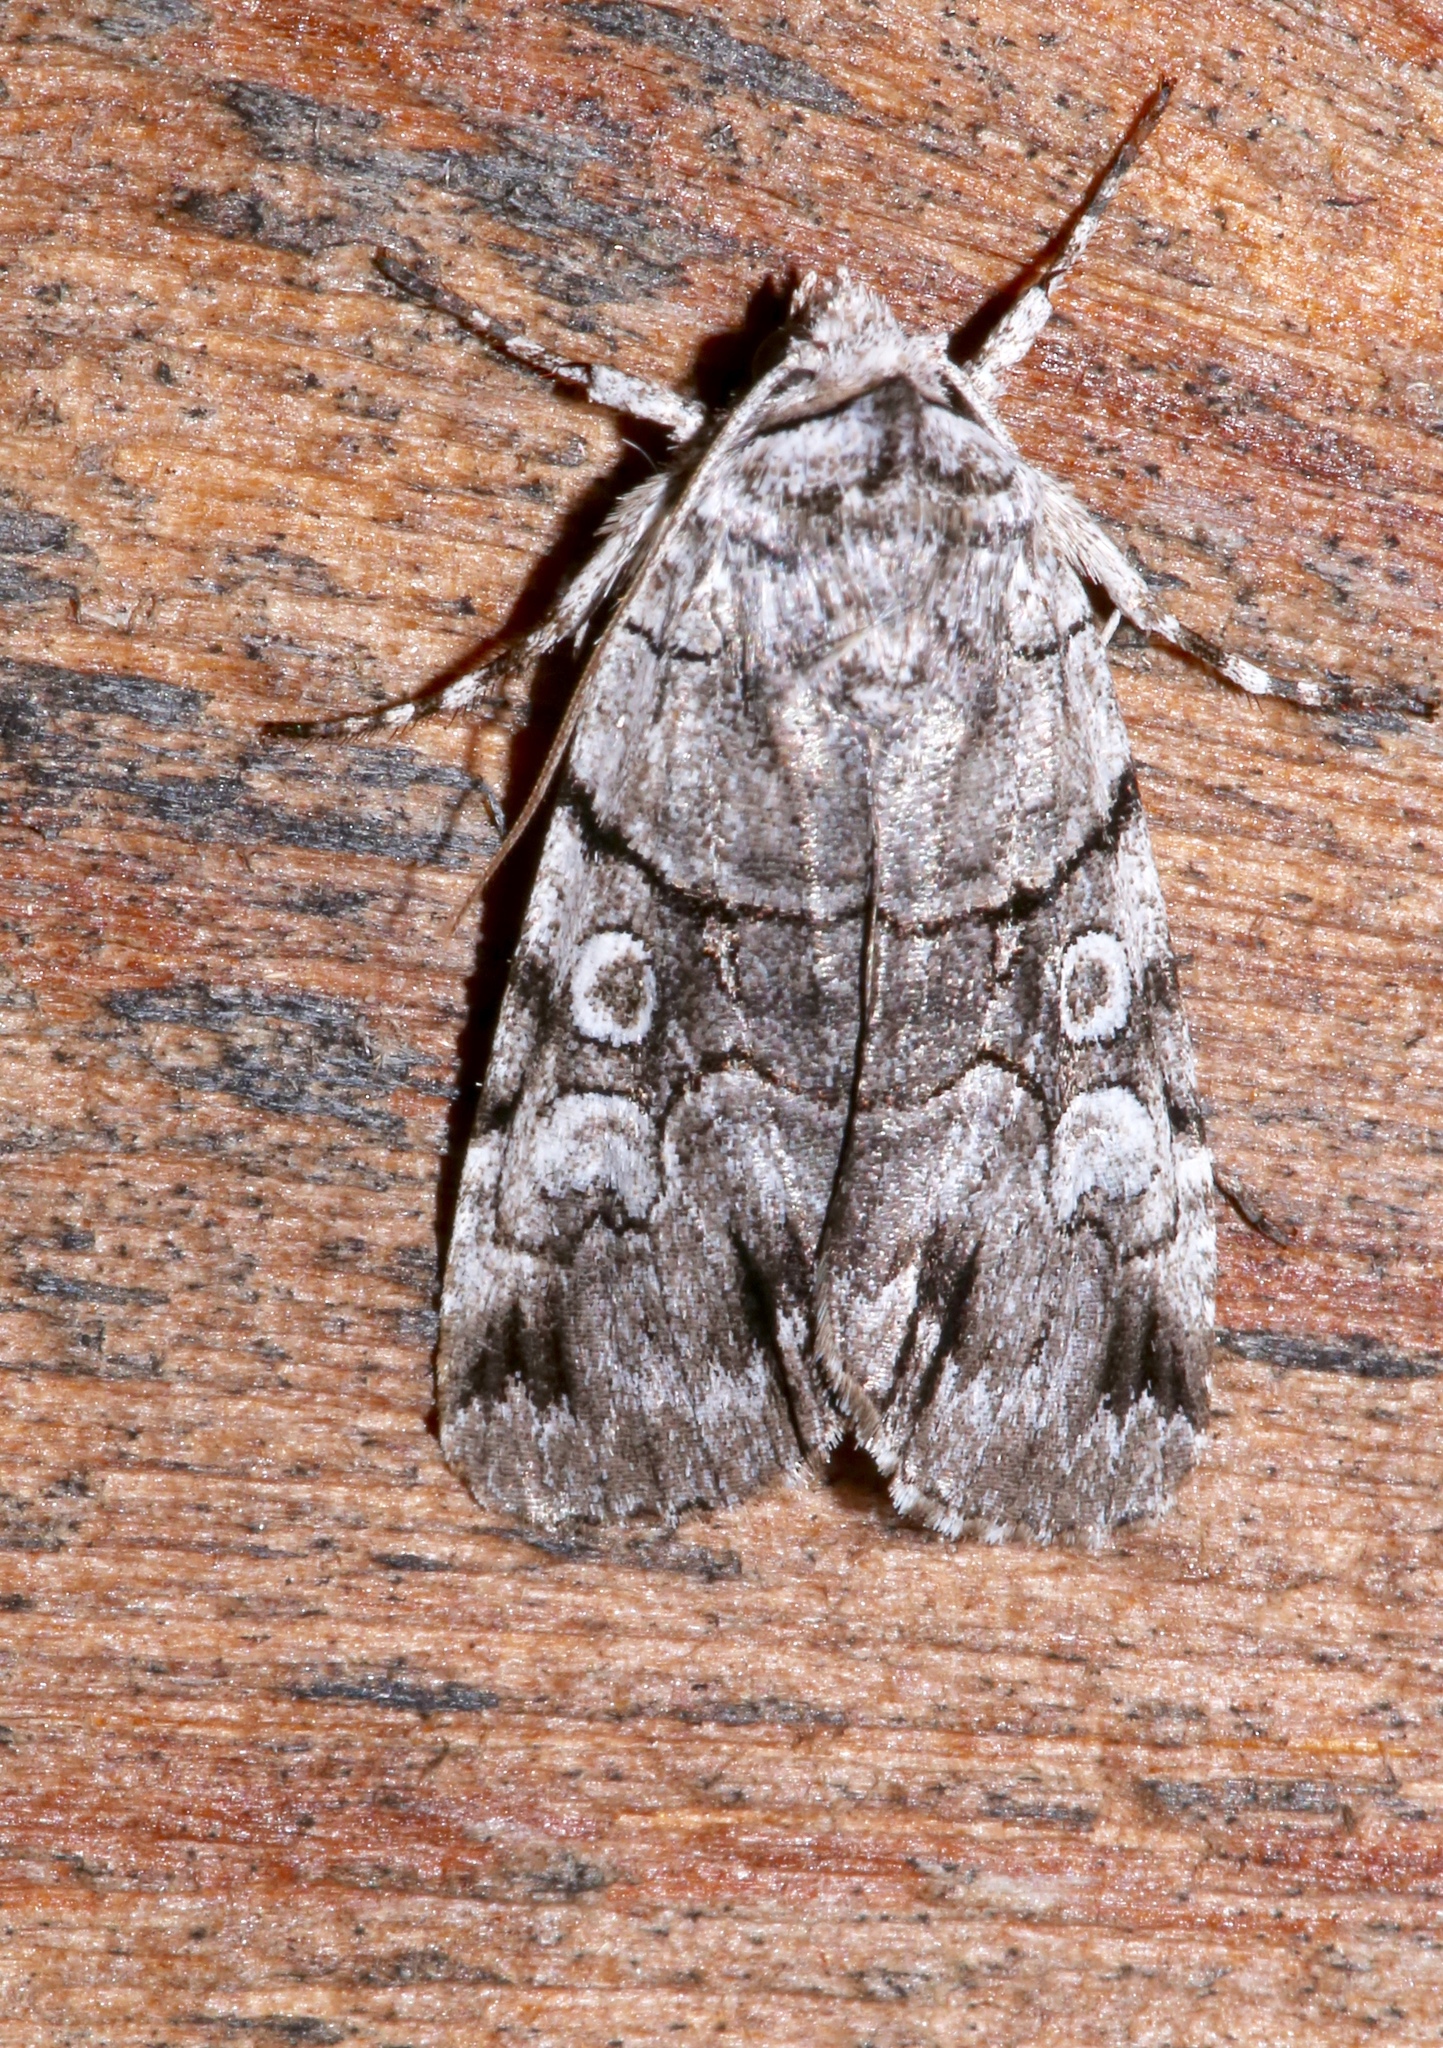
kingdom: Animalia
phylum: Arthropoda
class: Insecta
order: Lepidoptera
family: Noctuidae
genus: Sympistis
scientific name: Sympistis chionanthi
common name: Fringe-tree sallow
